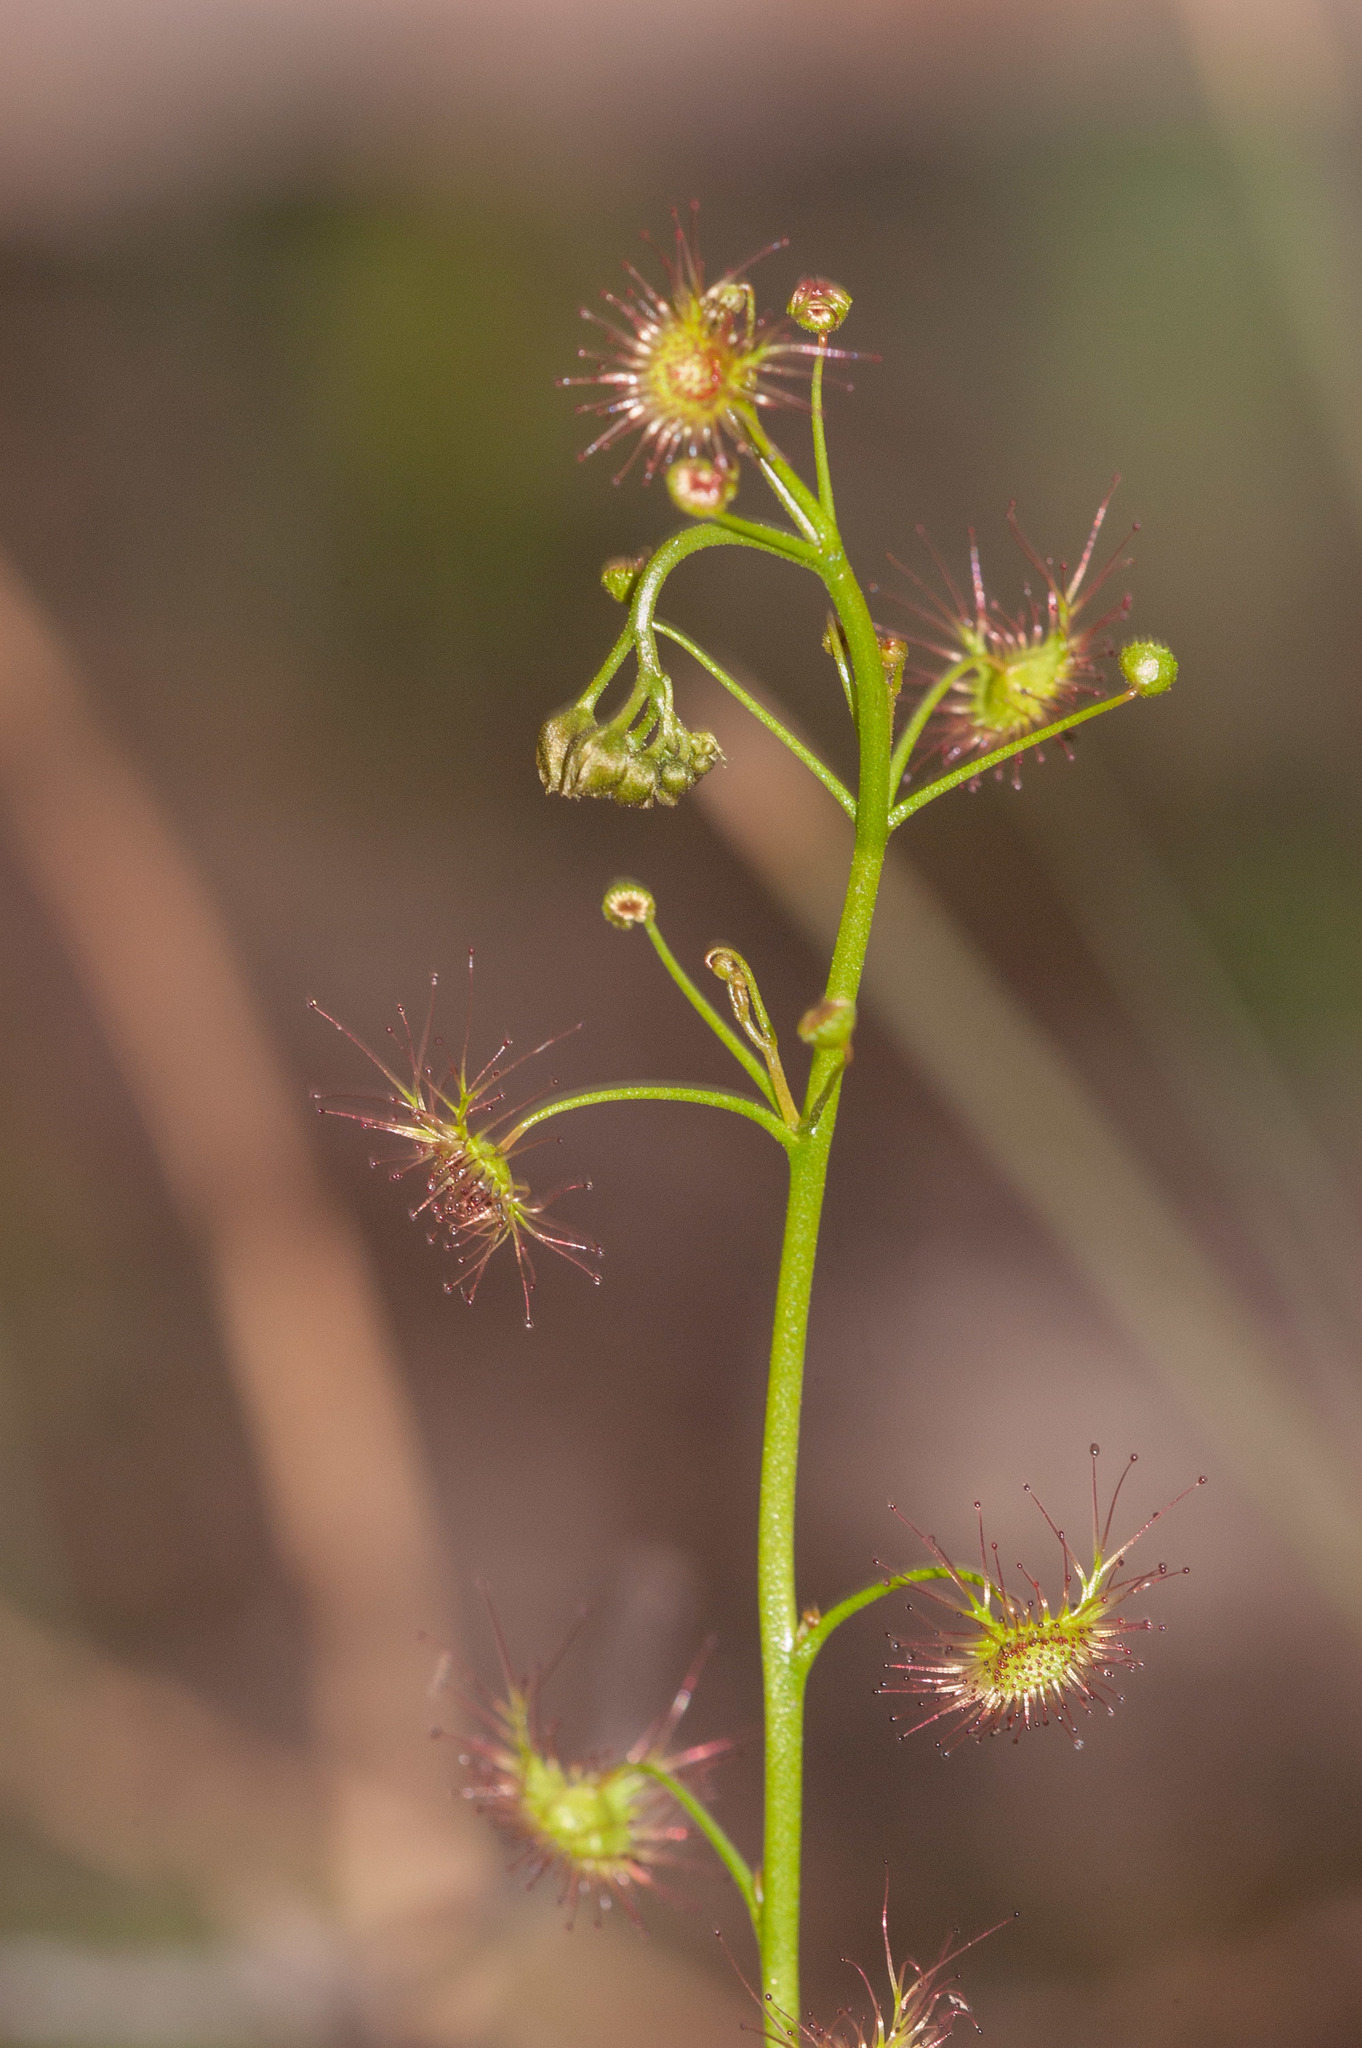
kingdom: Plantae
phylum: Tracheophyta
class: Magnoliopsida
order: Caryophyllales
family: Droseraceae
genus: Drosera
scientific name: Drosera peltata
